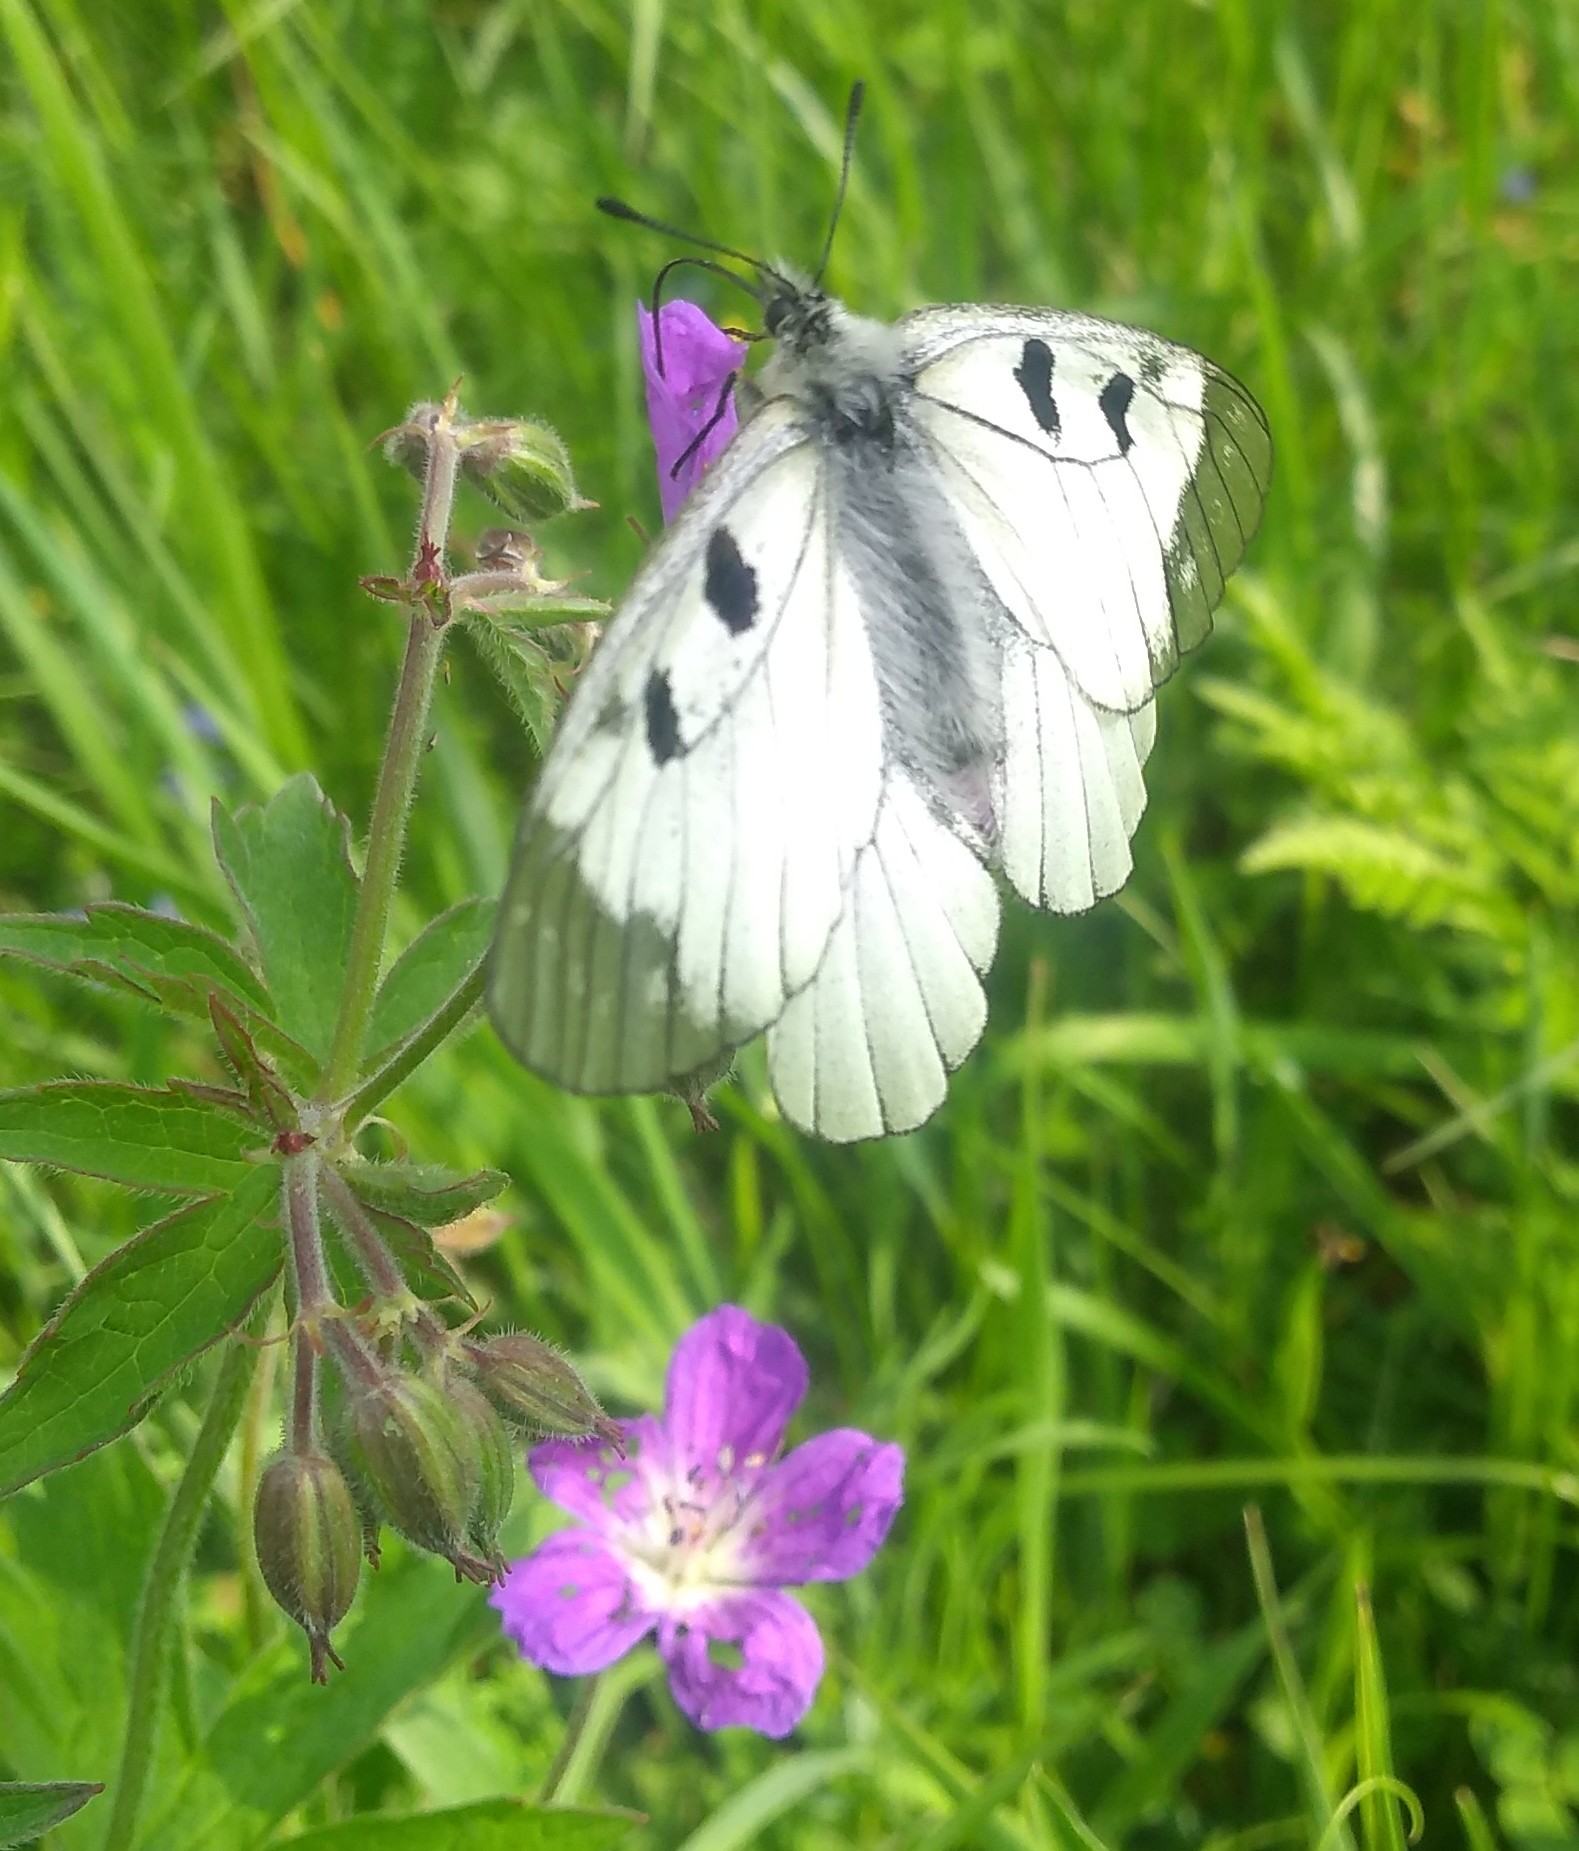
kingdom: Animalia
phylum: Arthropoda
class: Insecta
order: Lepidoptera
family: Papilionidae
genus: Parnassius
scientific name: Parnassius mnemosyne
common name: Clouded apollo
